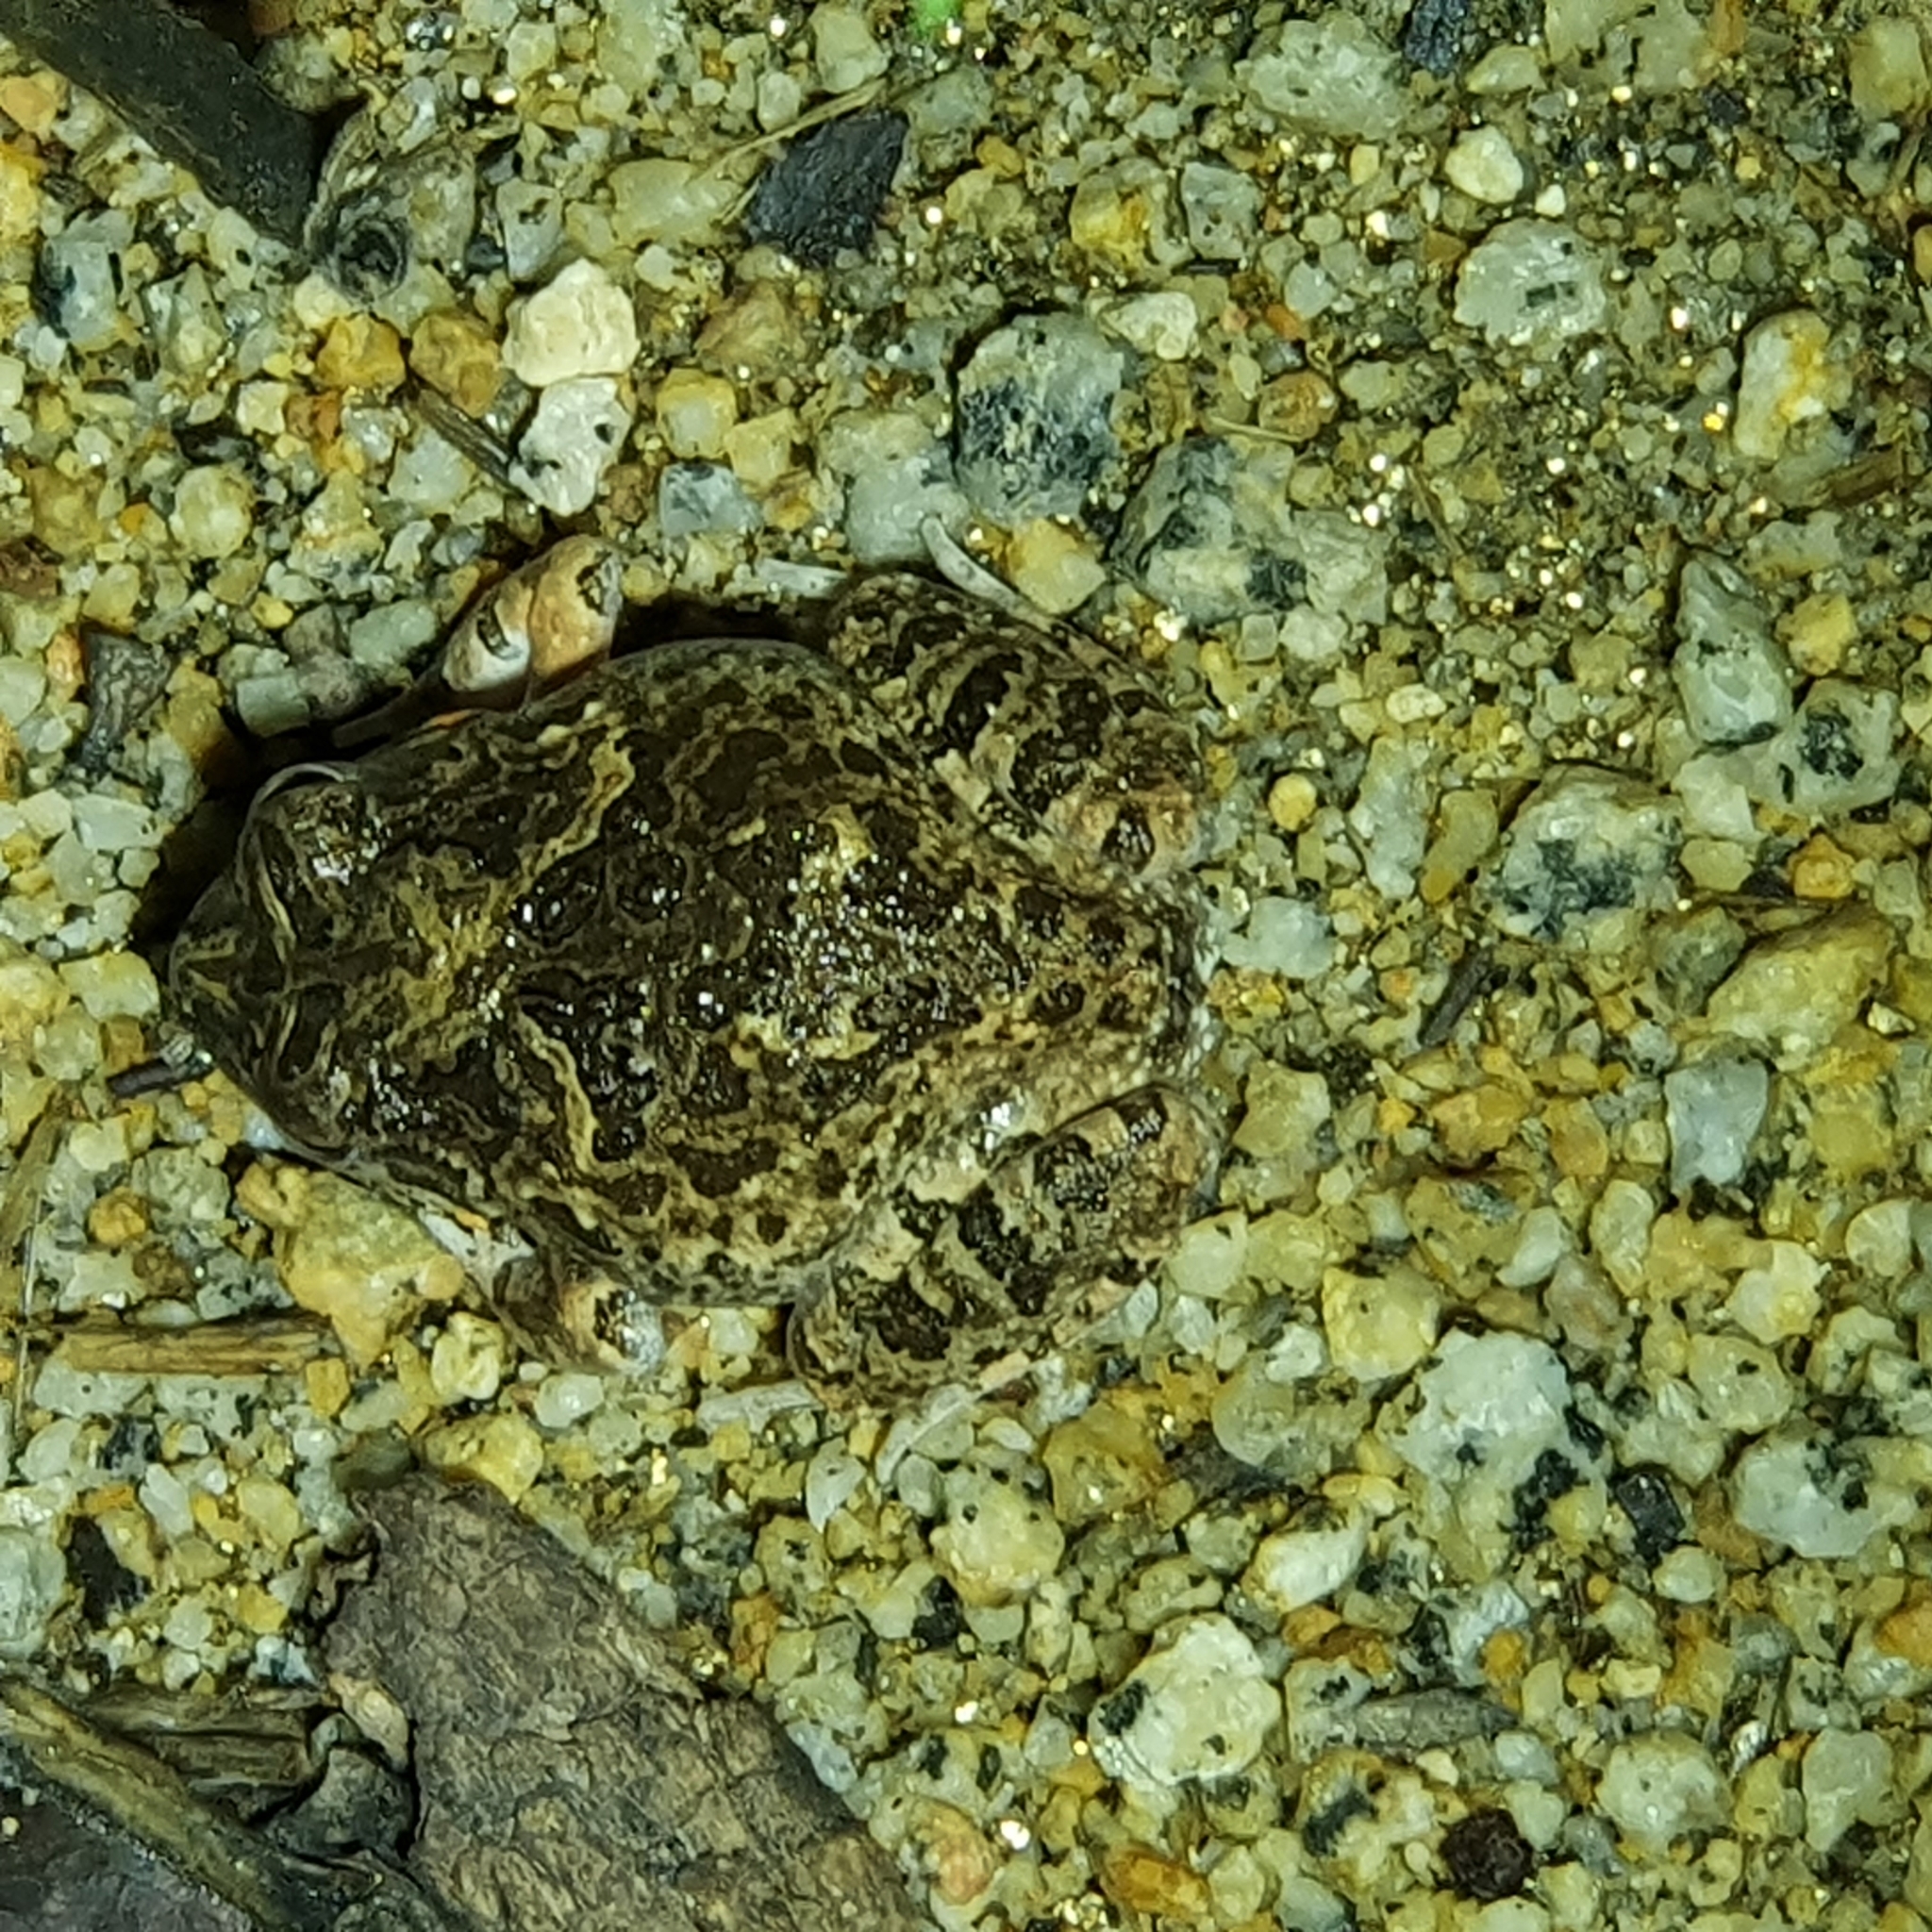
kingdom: Animalia
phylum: Chordata
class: Amphibia
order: Anura
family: Limnodynastidae
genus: Platyplectrum
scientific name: Platyplectrum ornatum
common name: Ornate burrowing frog
